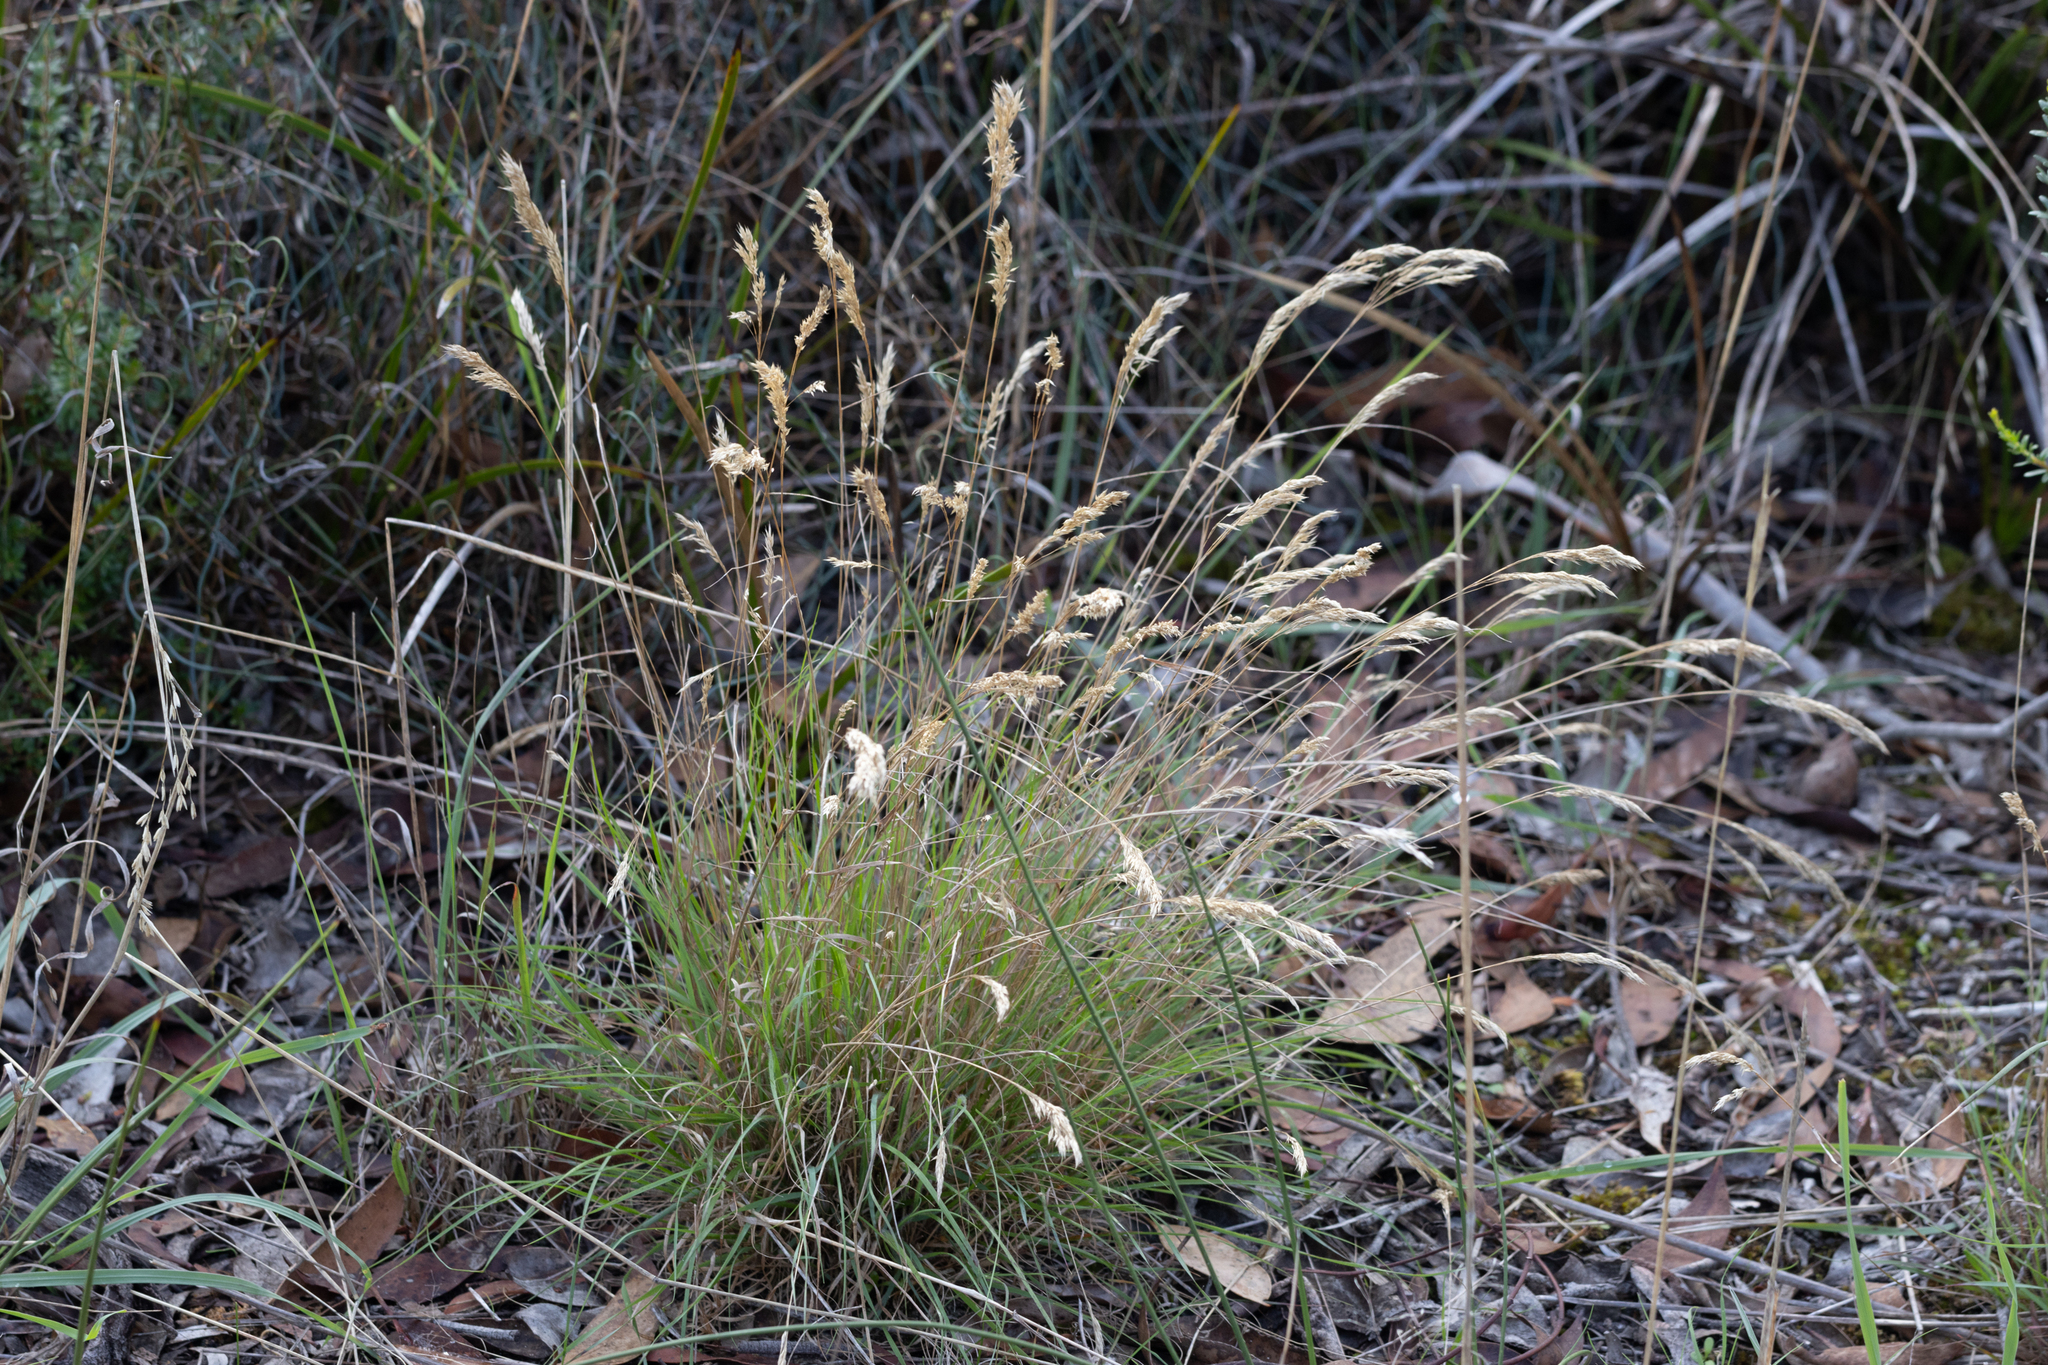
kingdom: Plantae
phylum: Tracheophyta
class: Liliopsida
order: Poales
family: Poaceae
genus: Pentameris
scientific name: Pentameris pallida
